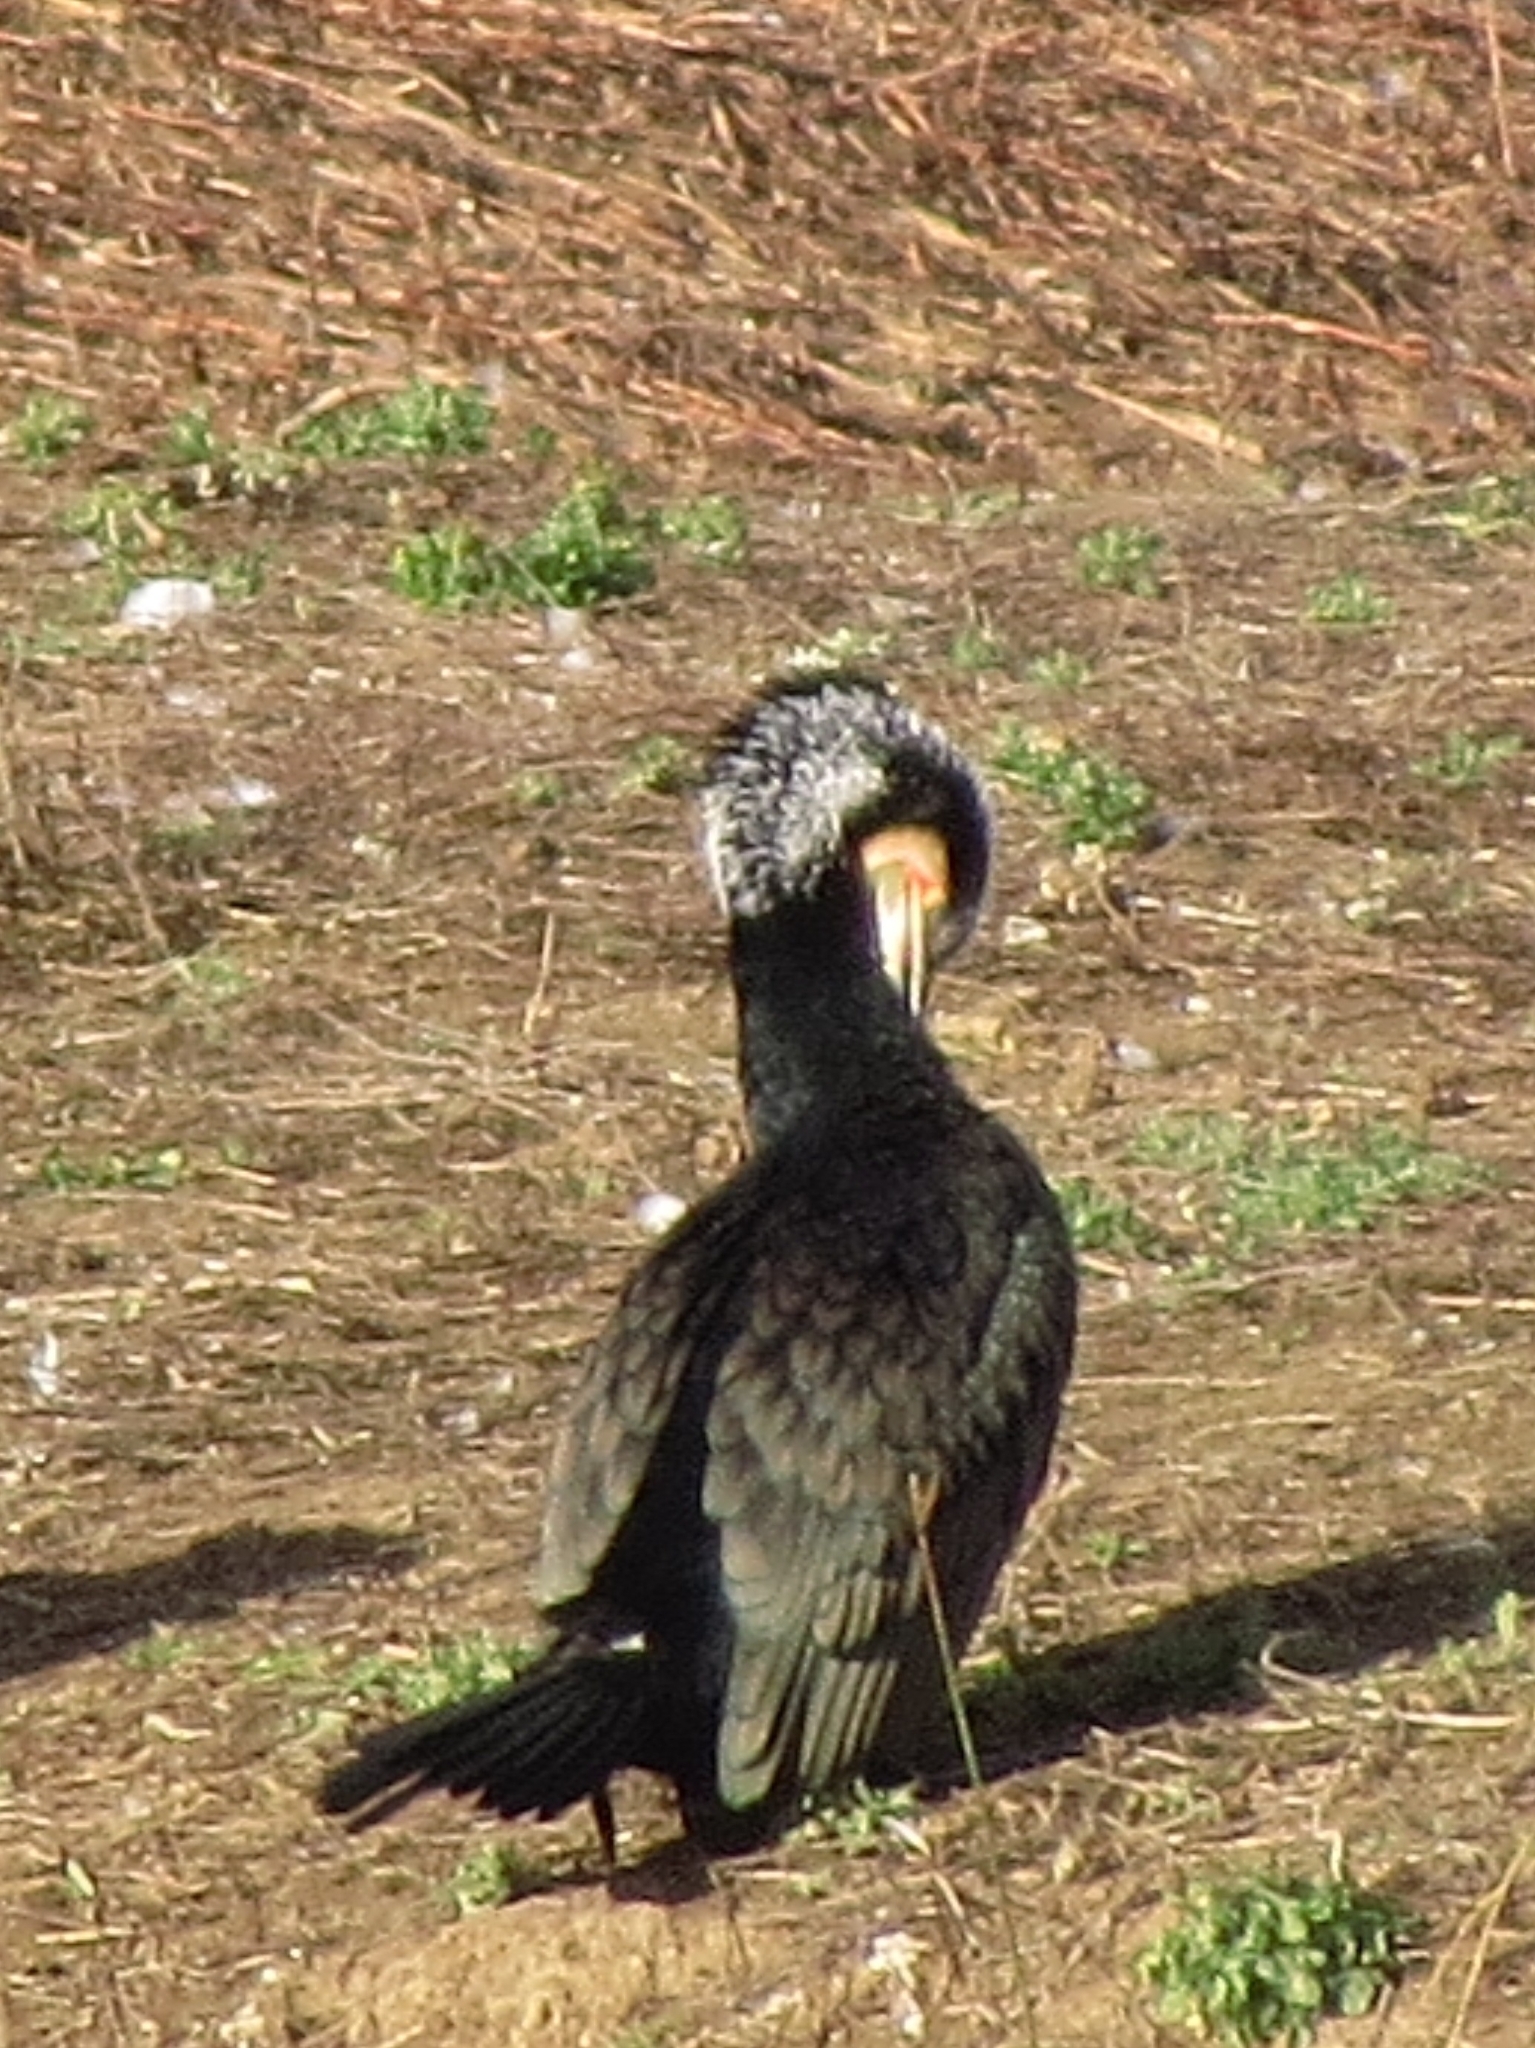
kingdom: Animalia
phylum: Chordata
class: Aves
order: Suliformes
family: Phalacrocoracidae
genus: Phalacrocorax
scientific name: Phalacrocorax carbo
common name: Great cormorant
